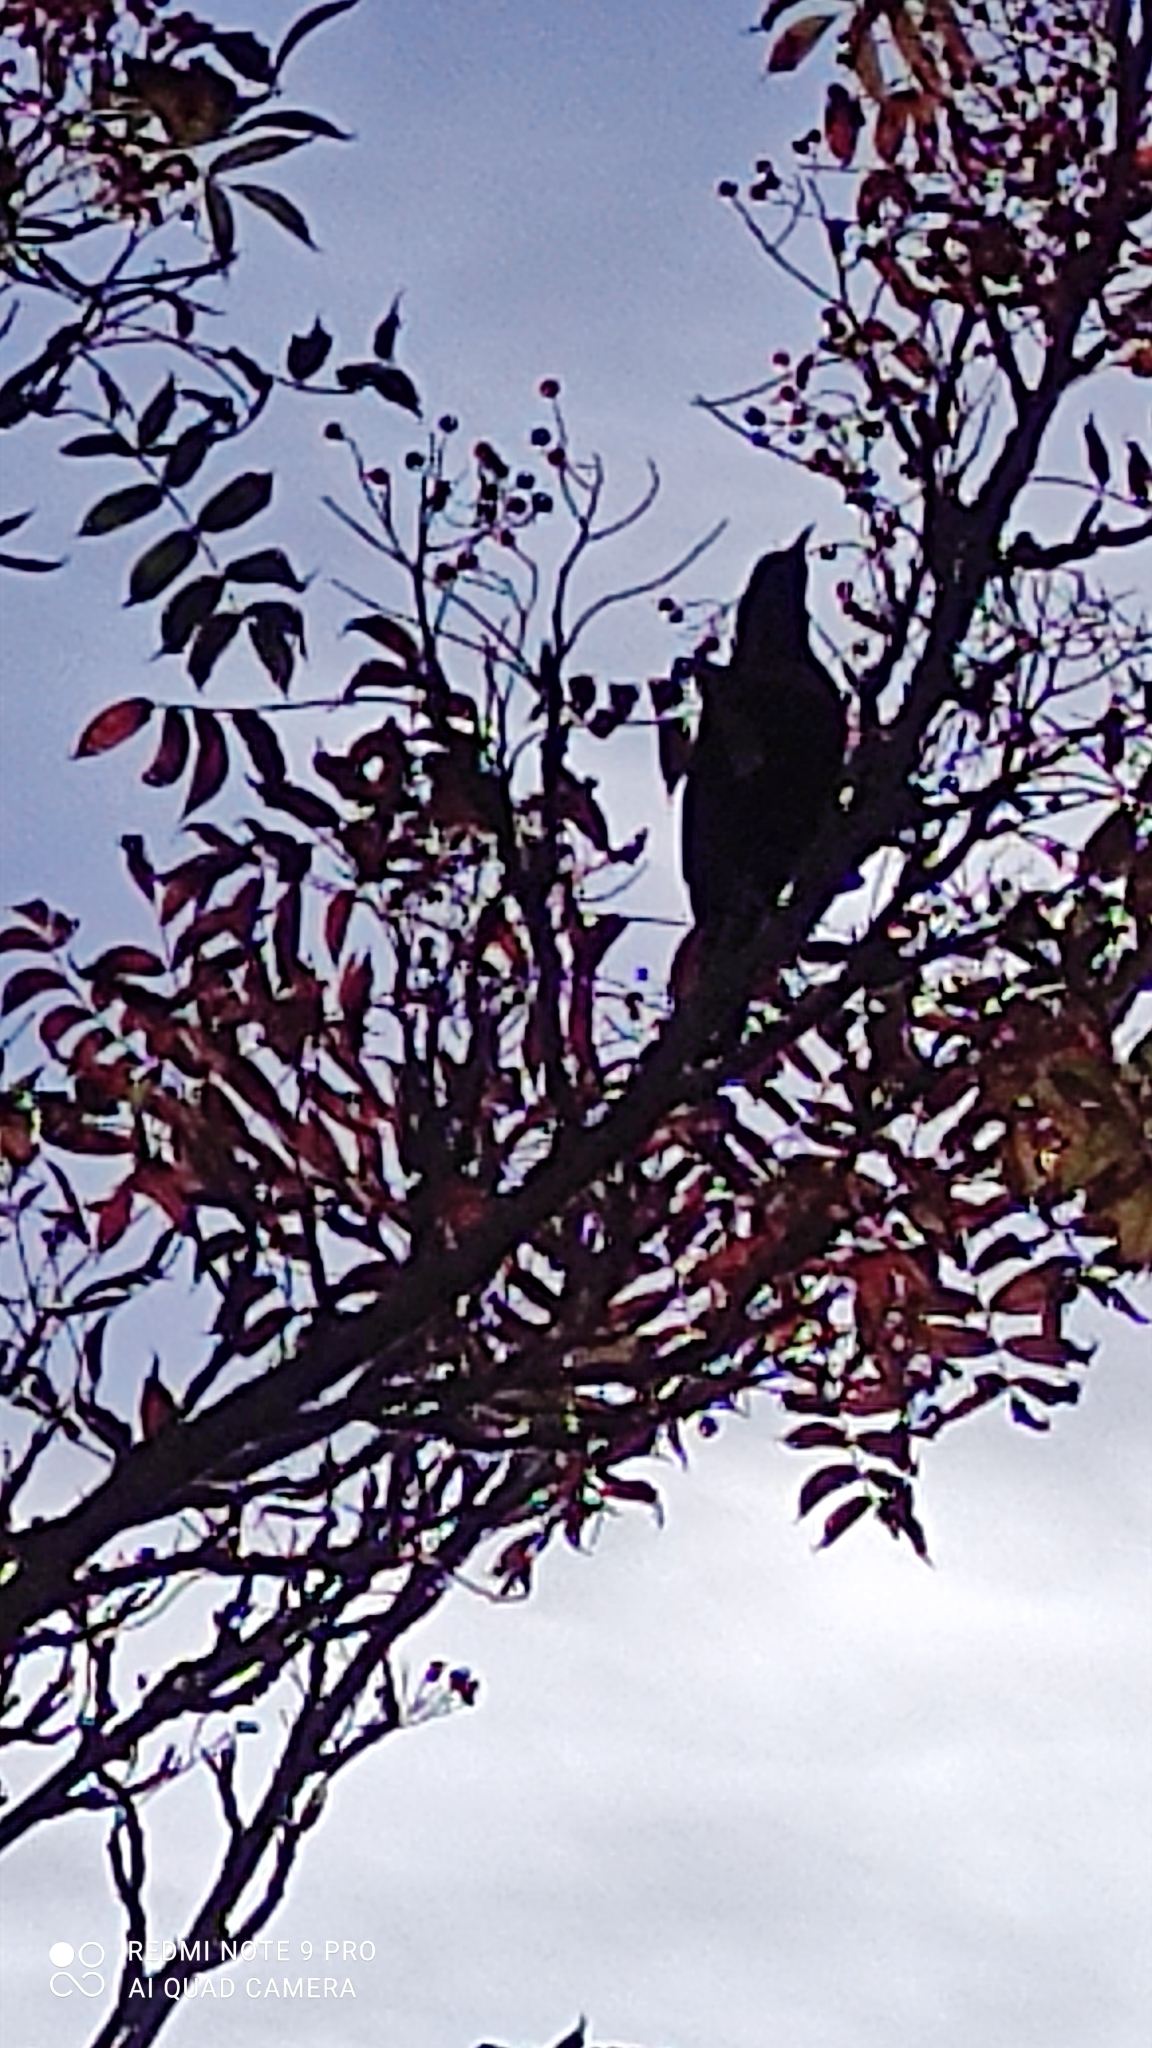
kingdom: Animalia
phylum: Chordata
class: Aves
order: Passeriformes
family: Turdidae
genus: Turdus
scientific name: Turdus merula
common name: Common blackbird
